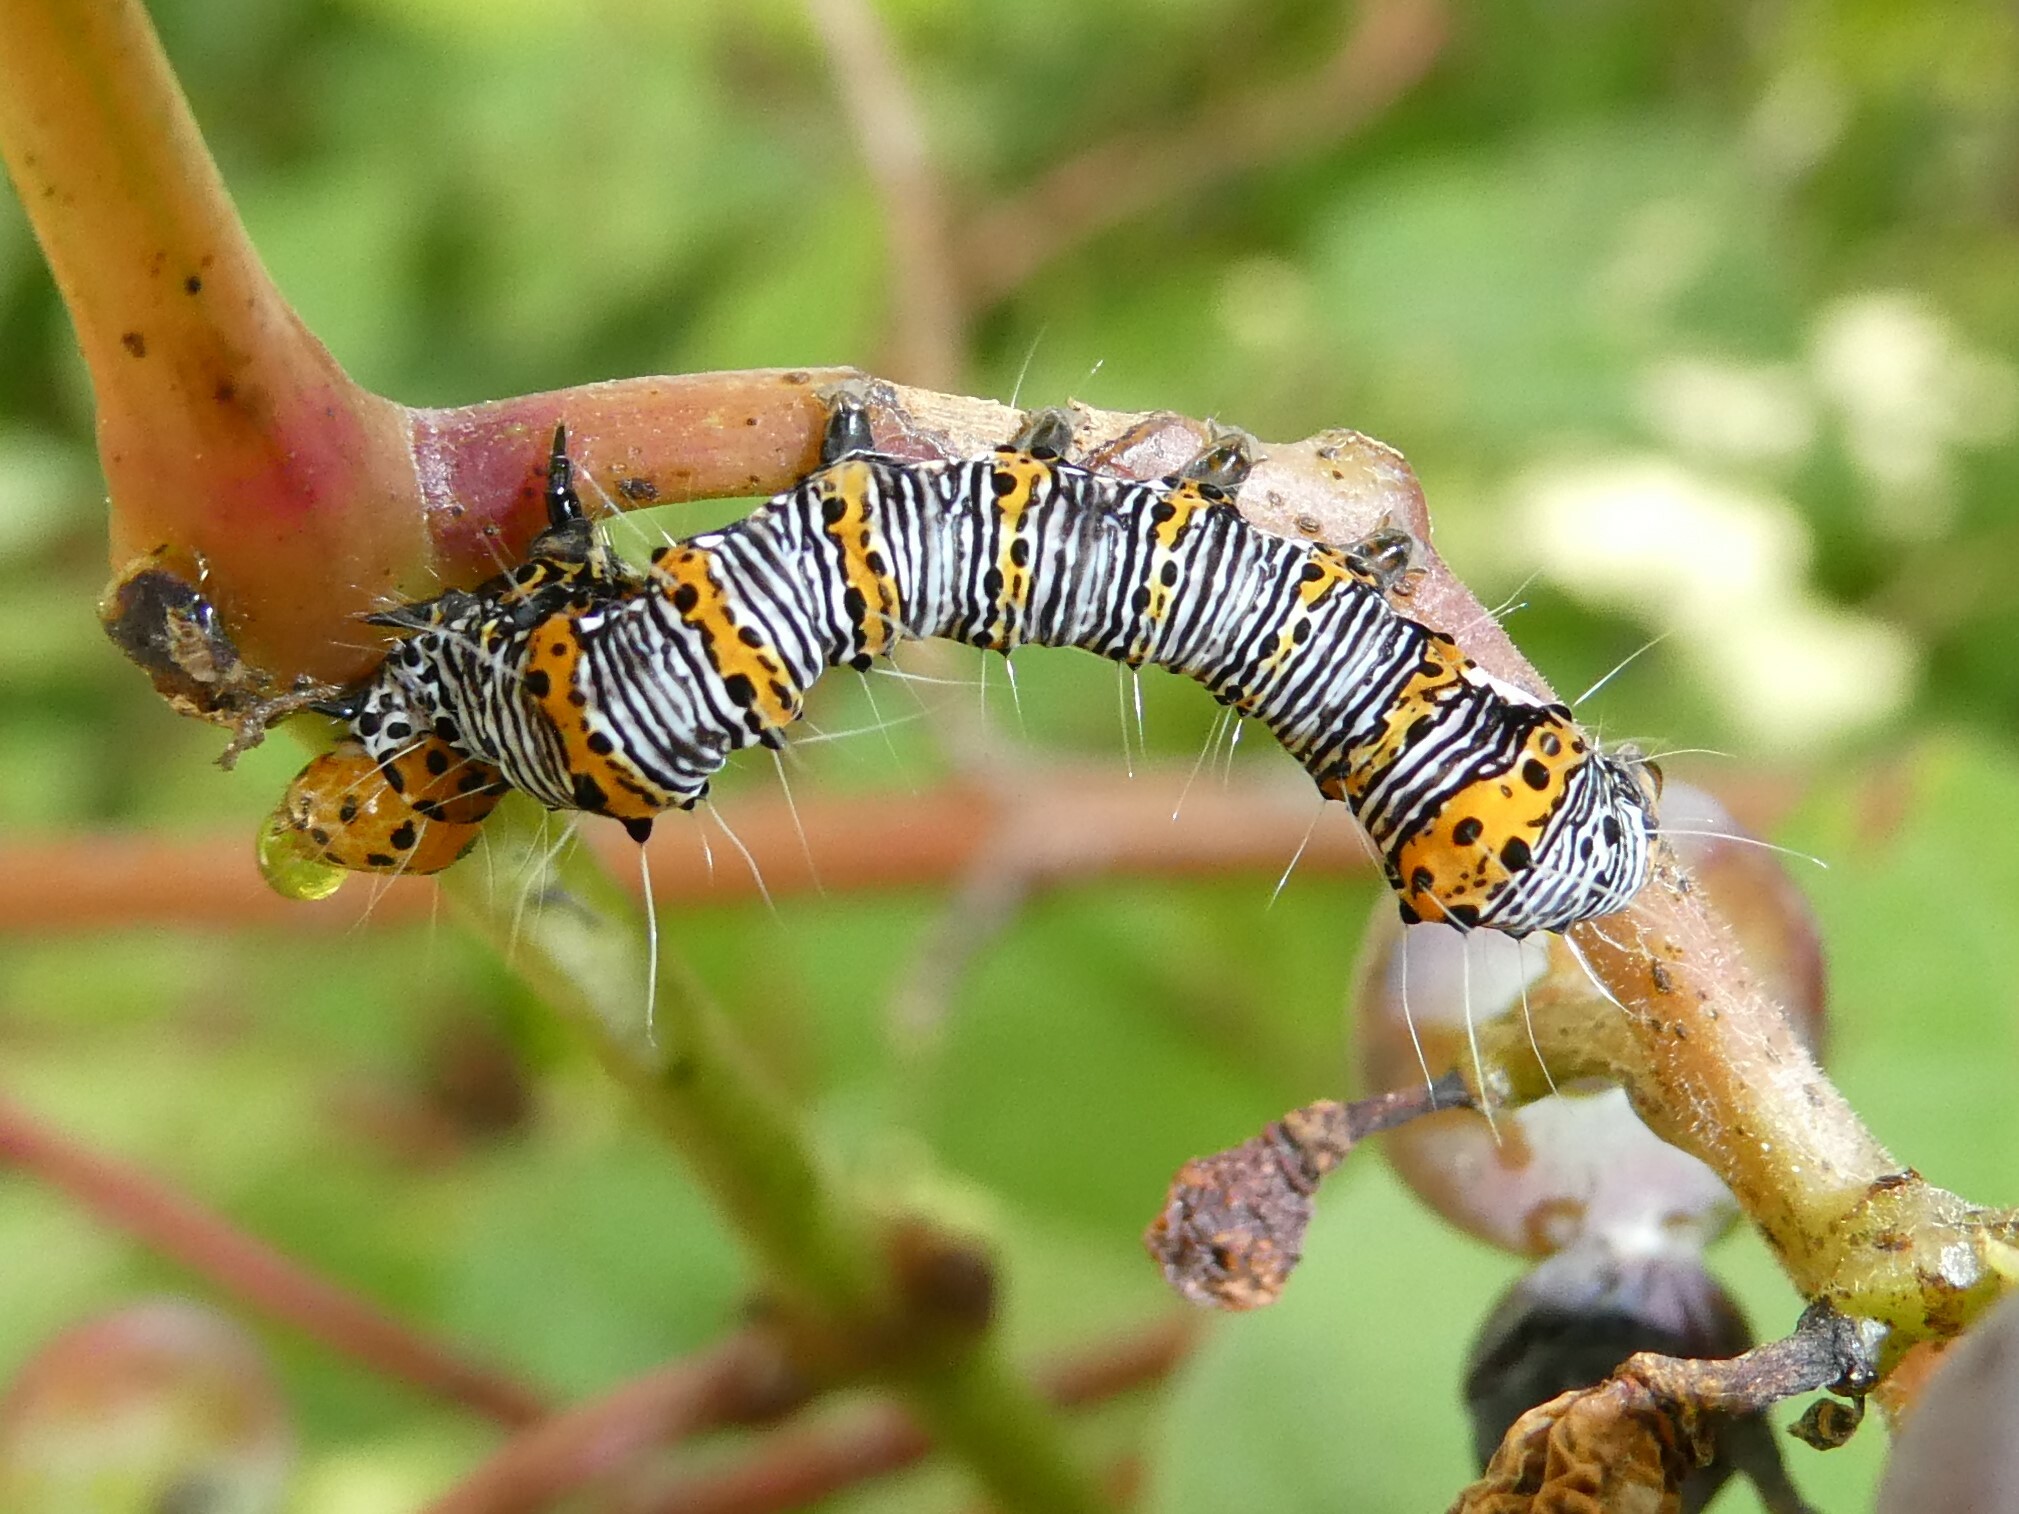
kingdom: Animalia
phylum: Arthropoda
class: Insecta
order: Lepidoptera
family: Noctuidae
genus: Alypia
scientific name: Alypia octomaculata
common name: Eight-spotted forester
